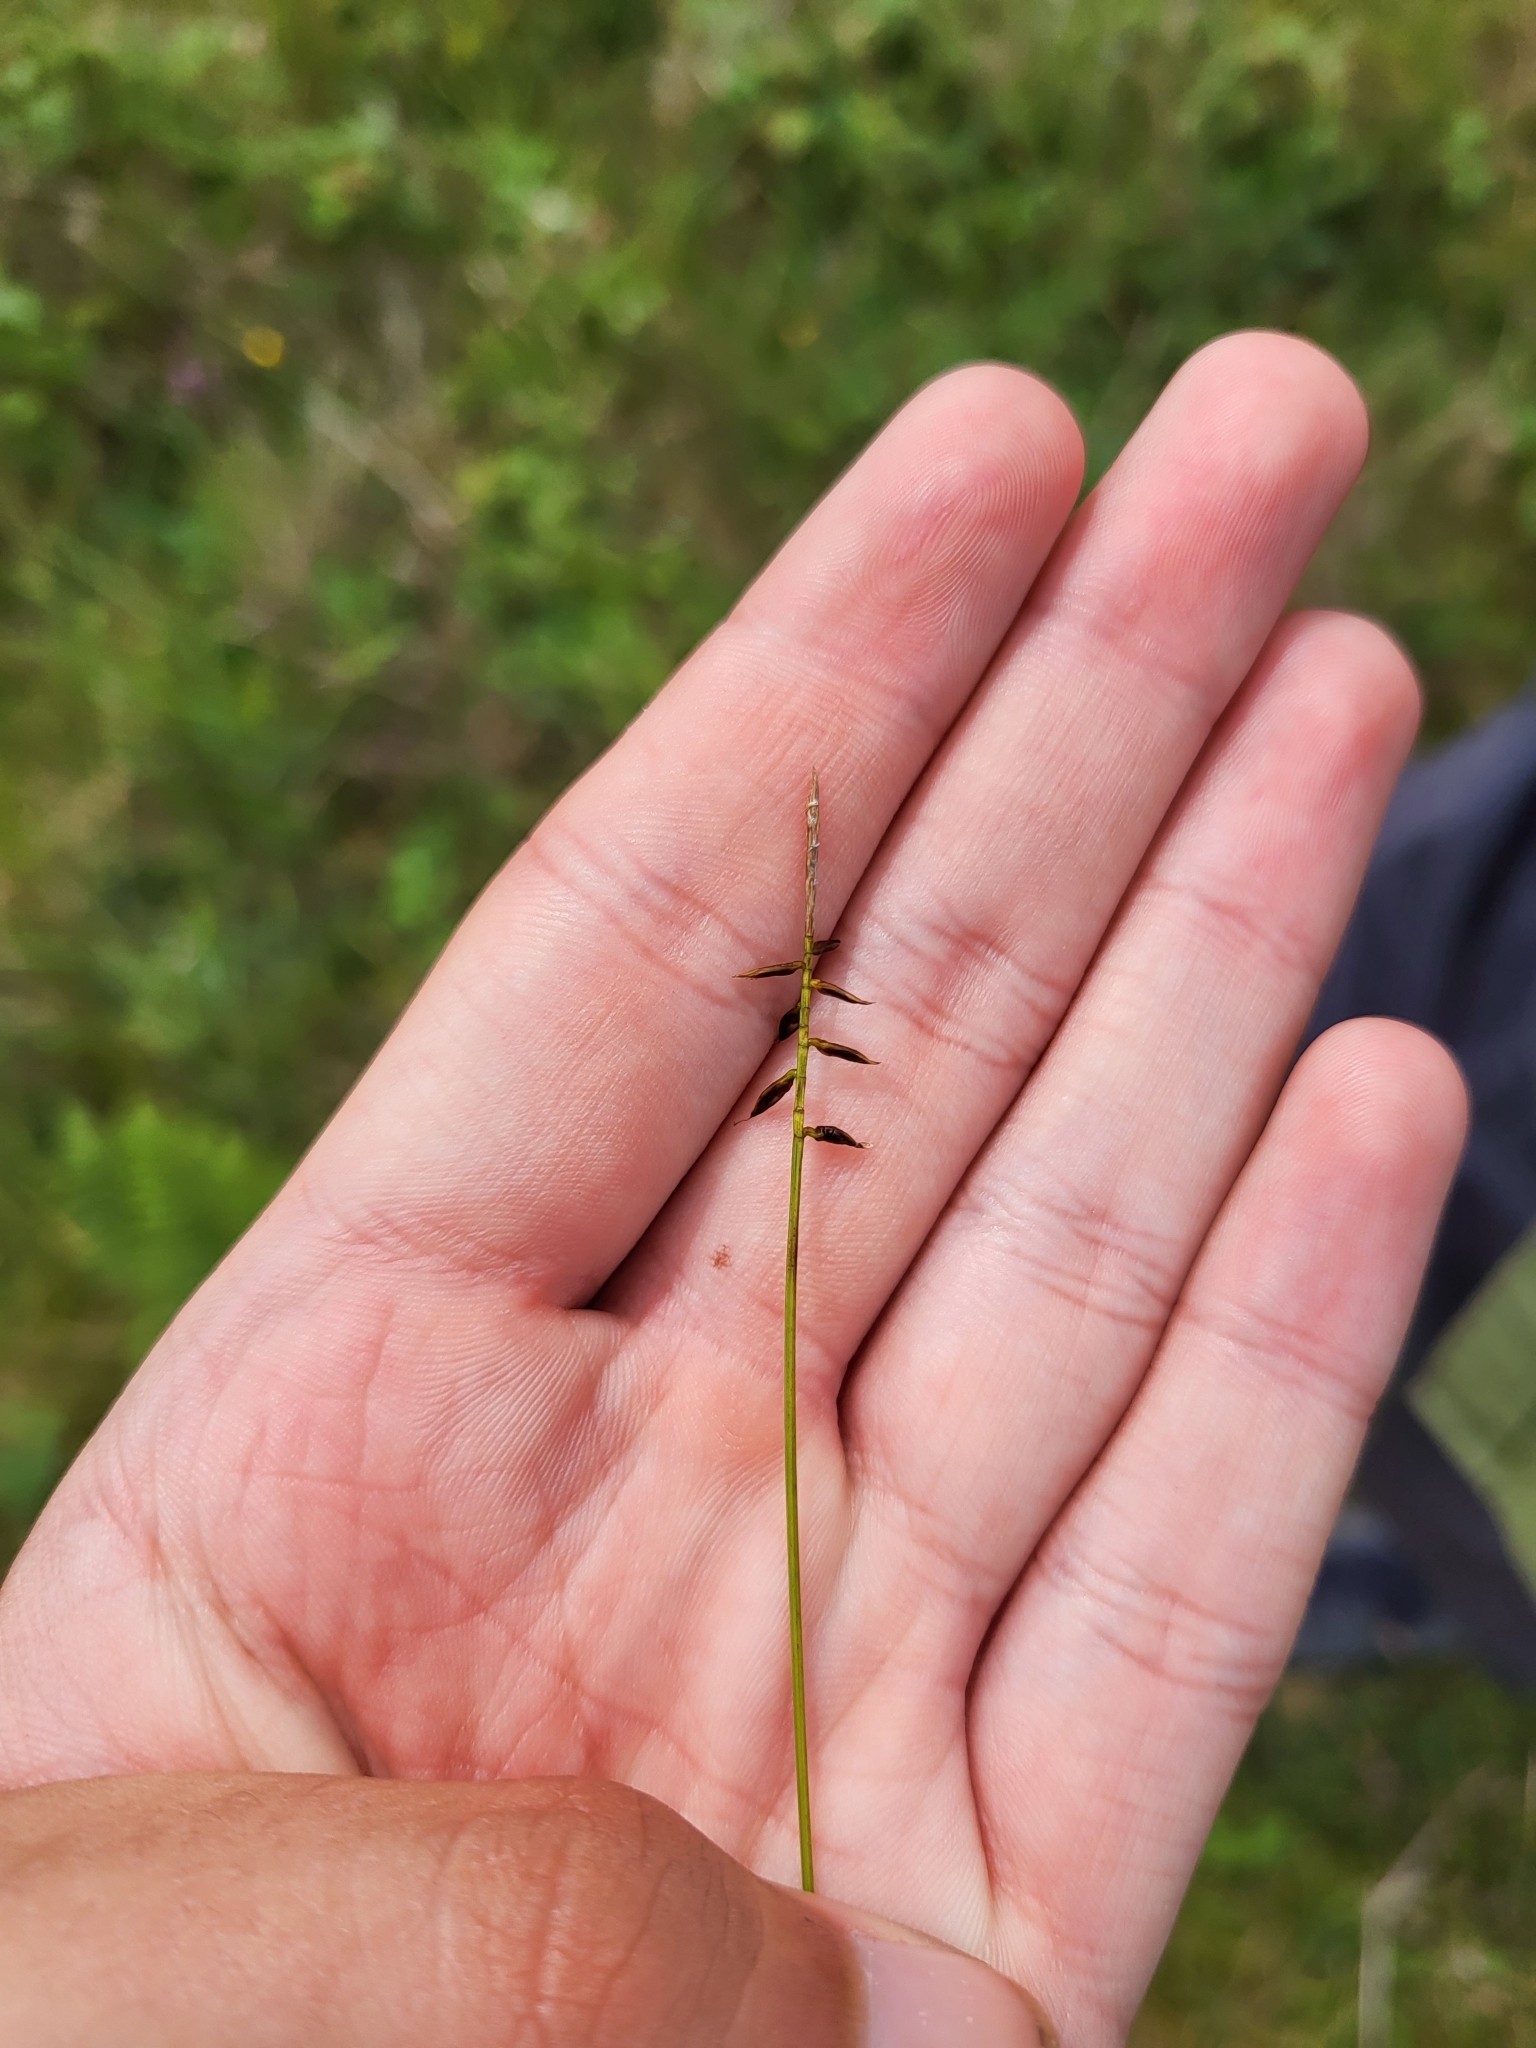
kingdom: Plantae
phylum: Tracheophyta
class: Liliopsida
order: Poales
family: Cyperaceae
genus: Carex
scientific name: Carex pulicaris
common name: Flea sedge
